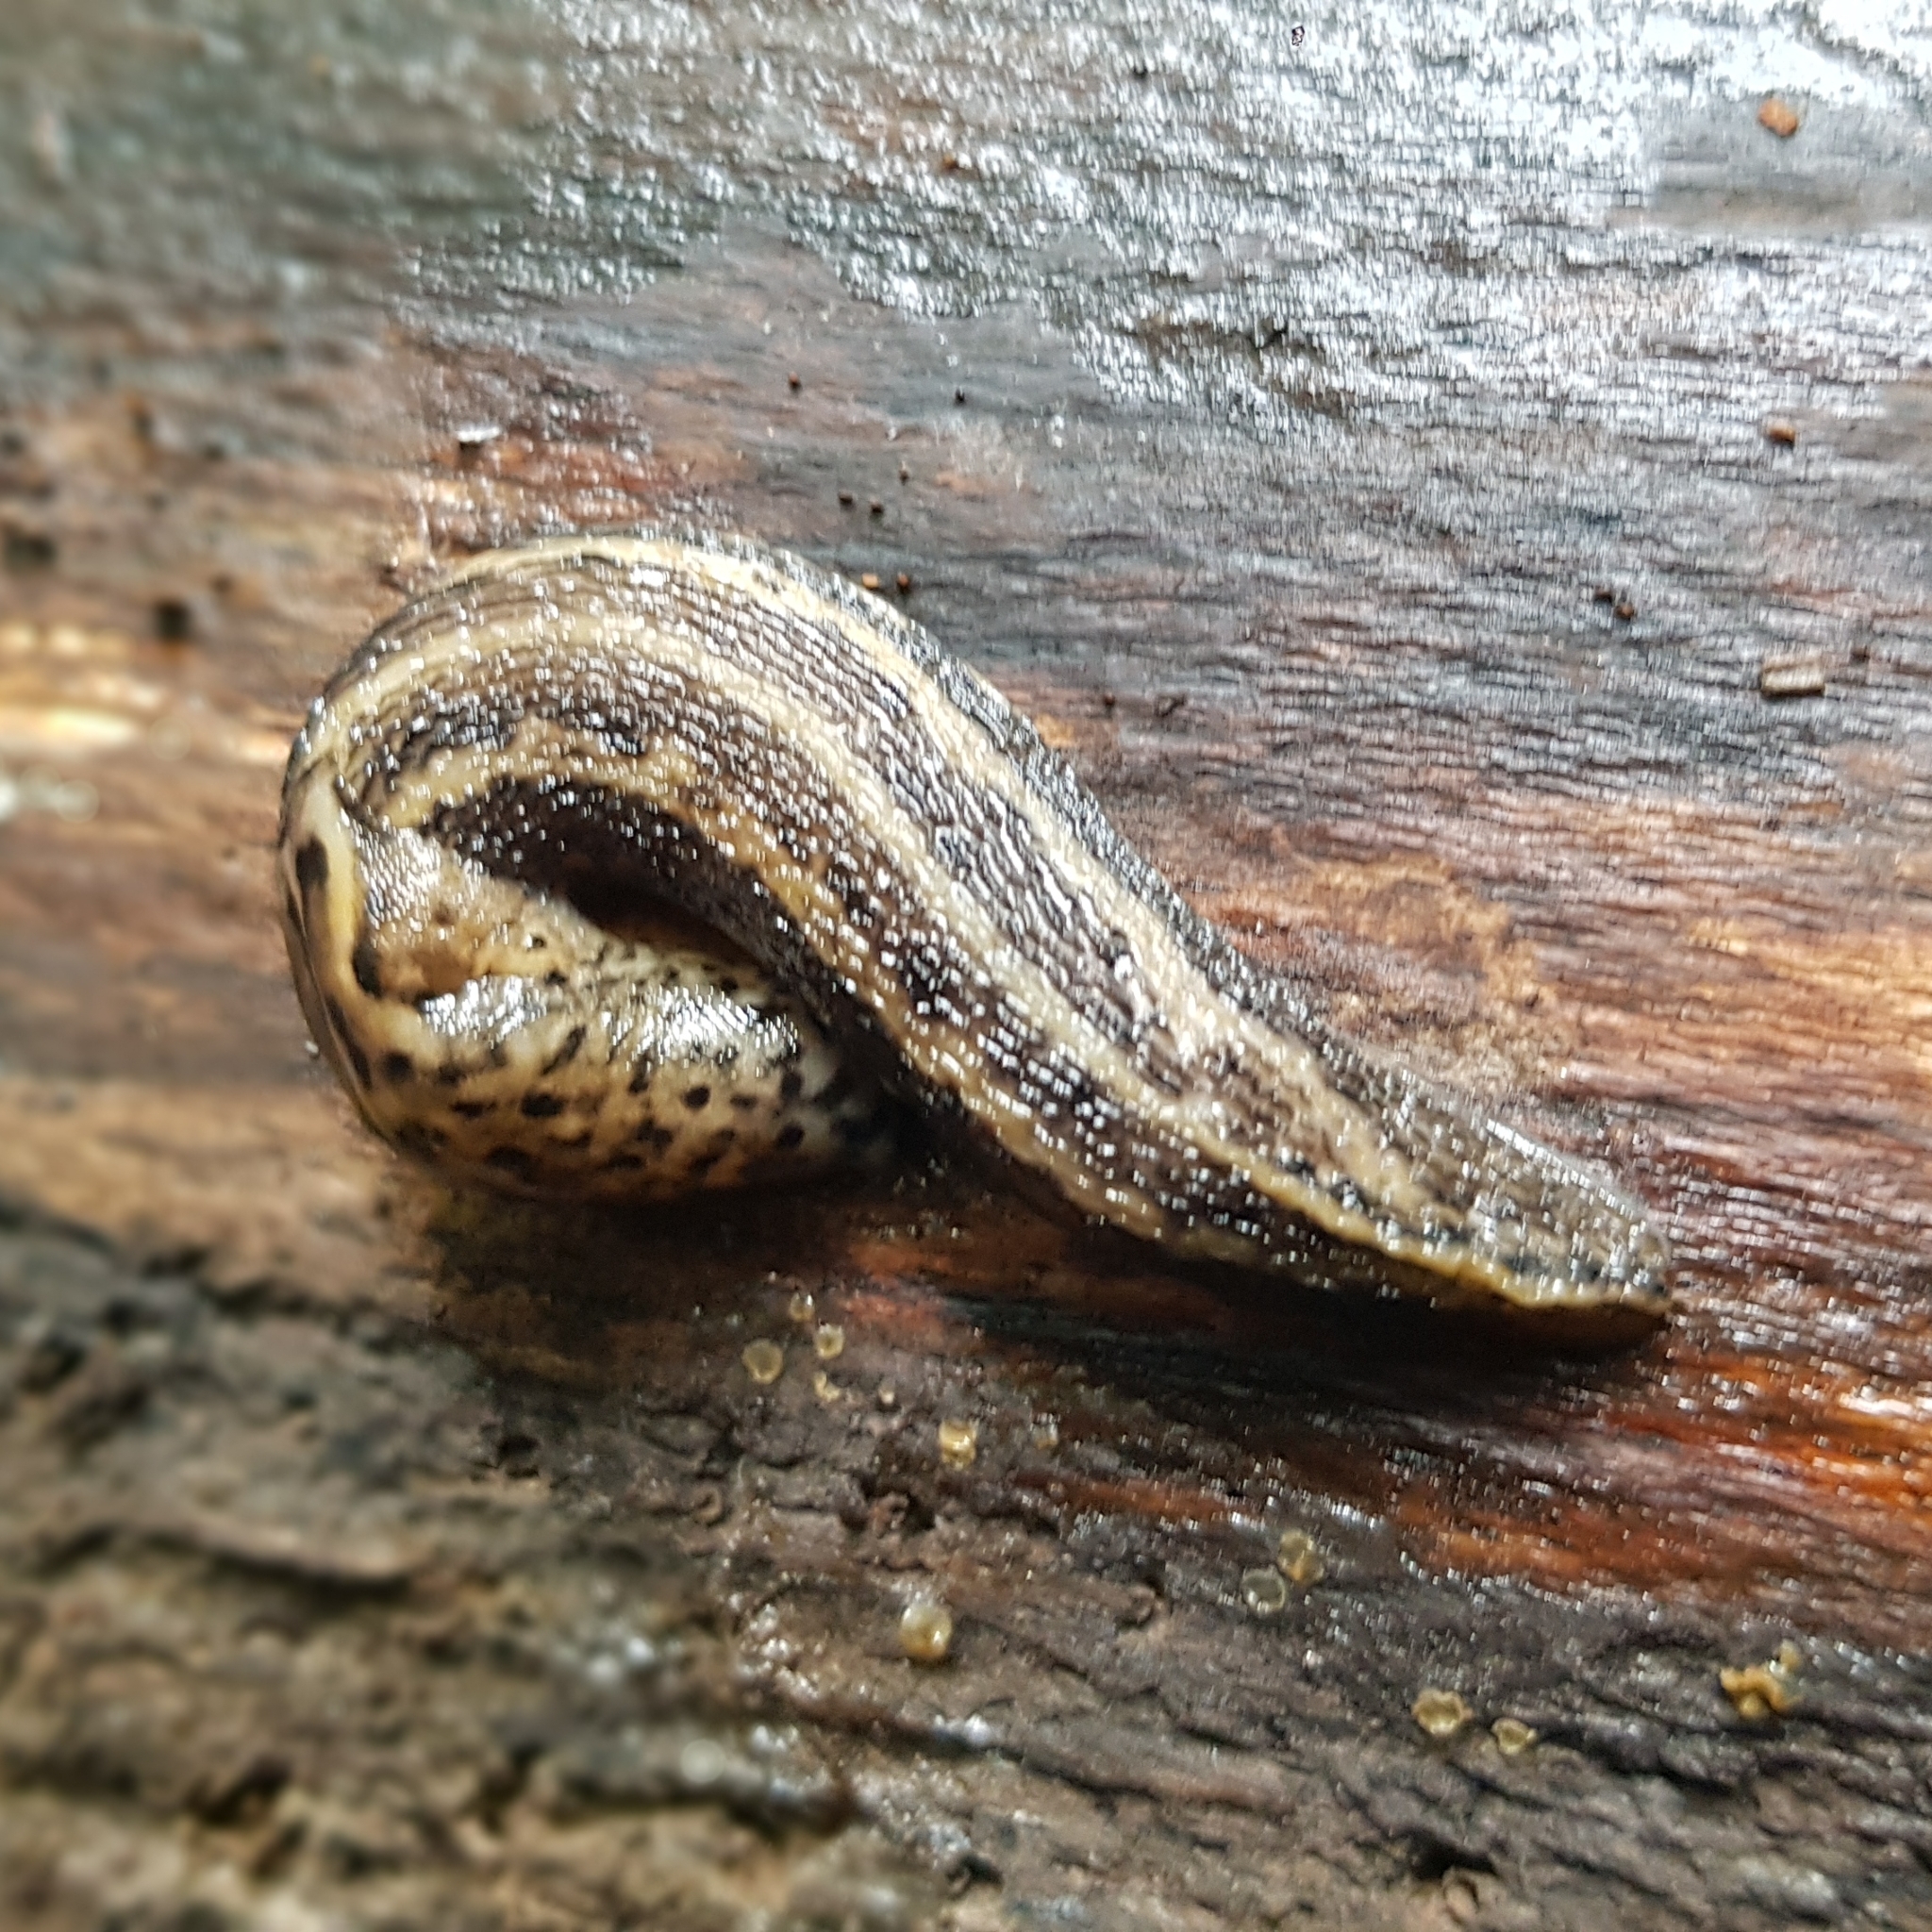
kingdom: Animalia
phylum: Mollusca
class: Gastropoda
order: Stylommatophora
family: Limacidae
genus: Limax
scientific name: Limax maximus
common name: Great grey slug
